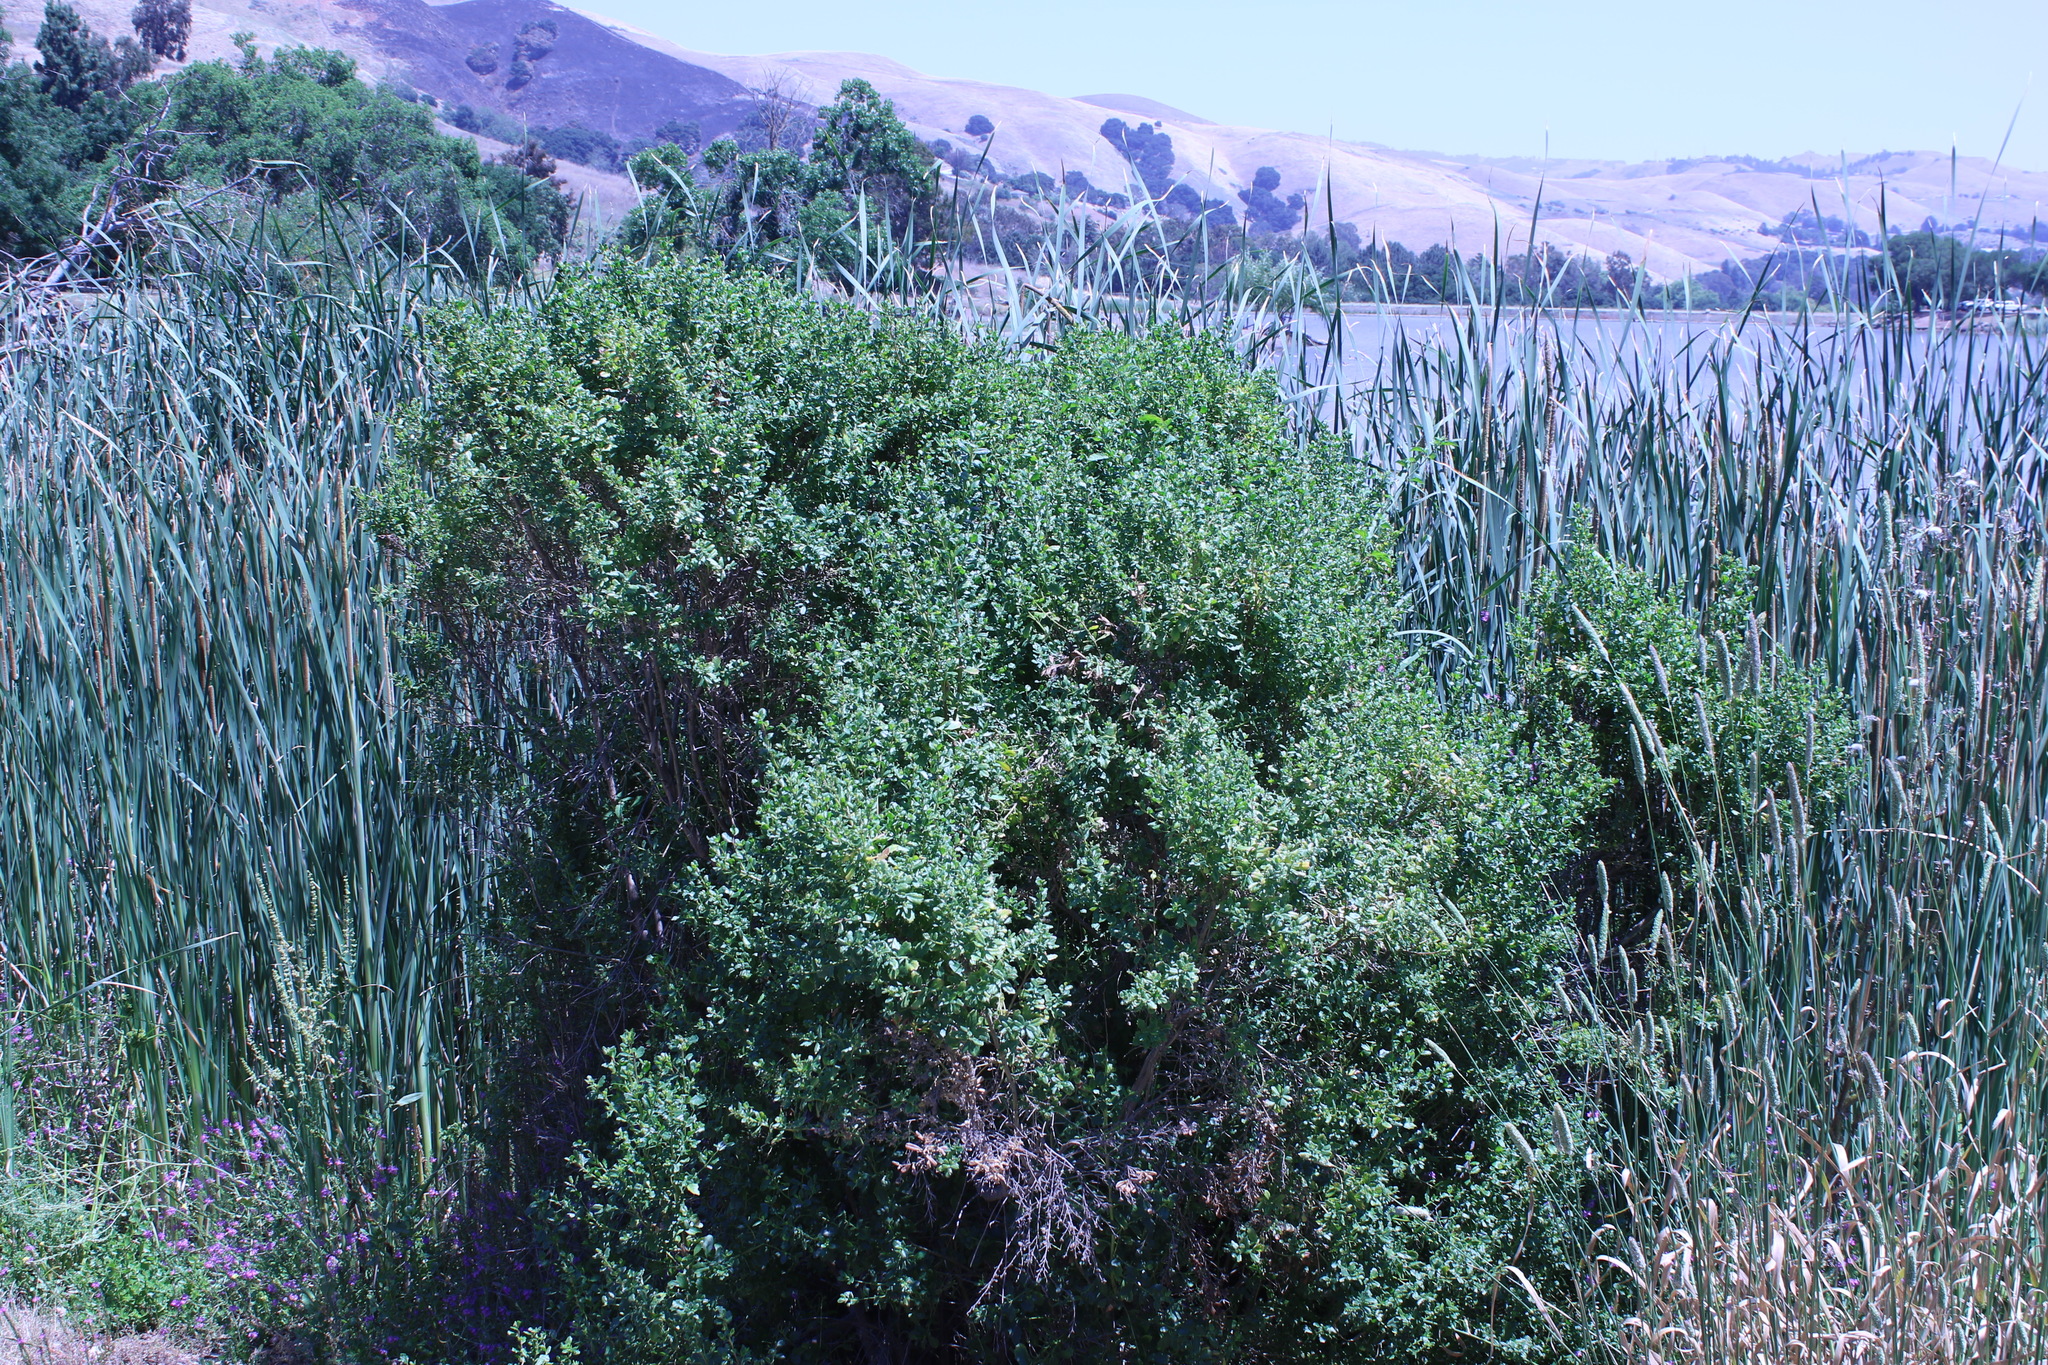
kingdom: Plantae
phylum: Tracheophyta
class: Magnoliopsida
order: Asterales
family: Asteraceae
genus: Baccharis
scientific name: Baccharis pilularis
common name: Coyotebrush
